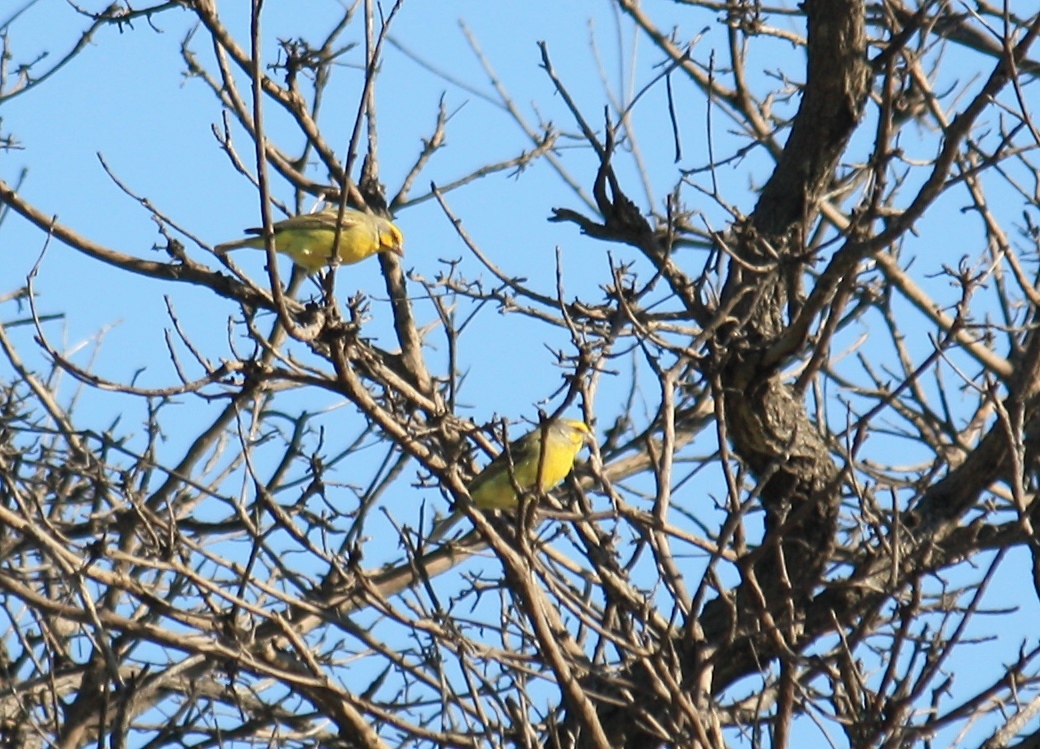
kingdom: Animalia
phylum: Chordata
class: Aves
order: Passeriformes
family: Fringillidae
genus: Crithagra
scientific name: Crithagra mozambica
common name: Yellow-fronted canary
